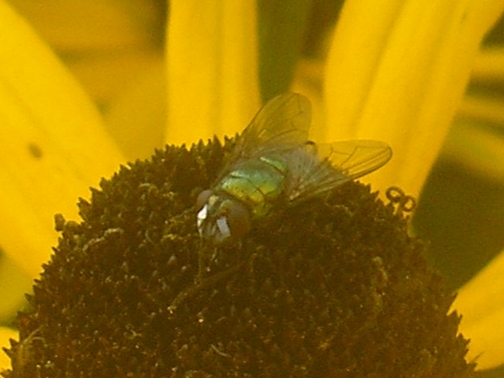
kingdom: Animalia
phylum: Arthropoda
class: Insecta
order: Diptera
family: Muscidae
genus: Neomyia
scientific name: Neomyia cornicina
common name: House fly
